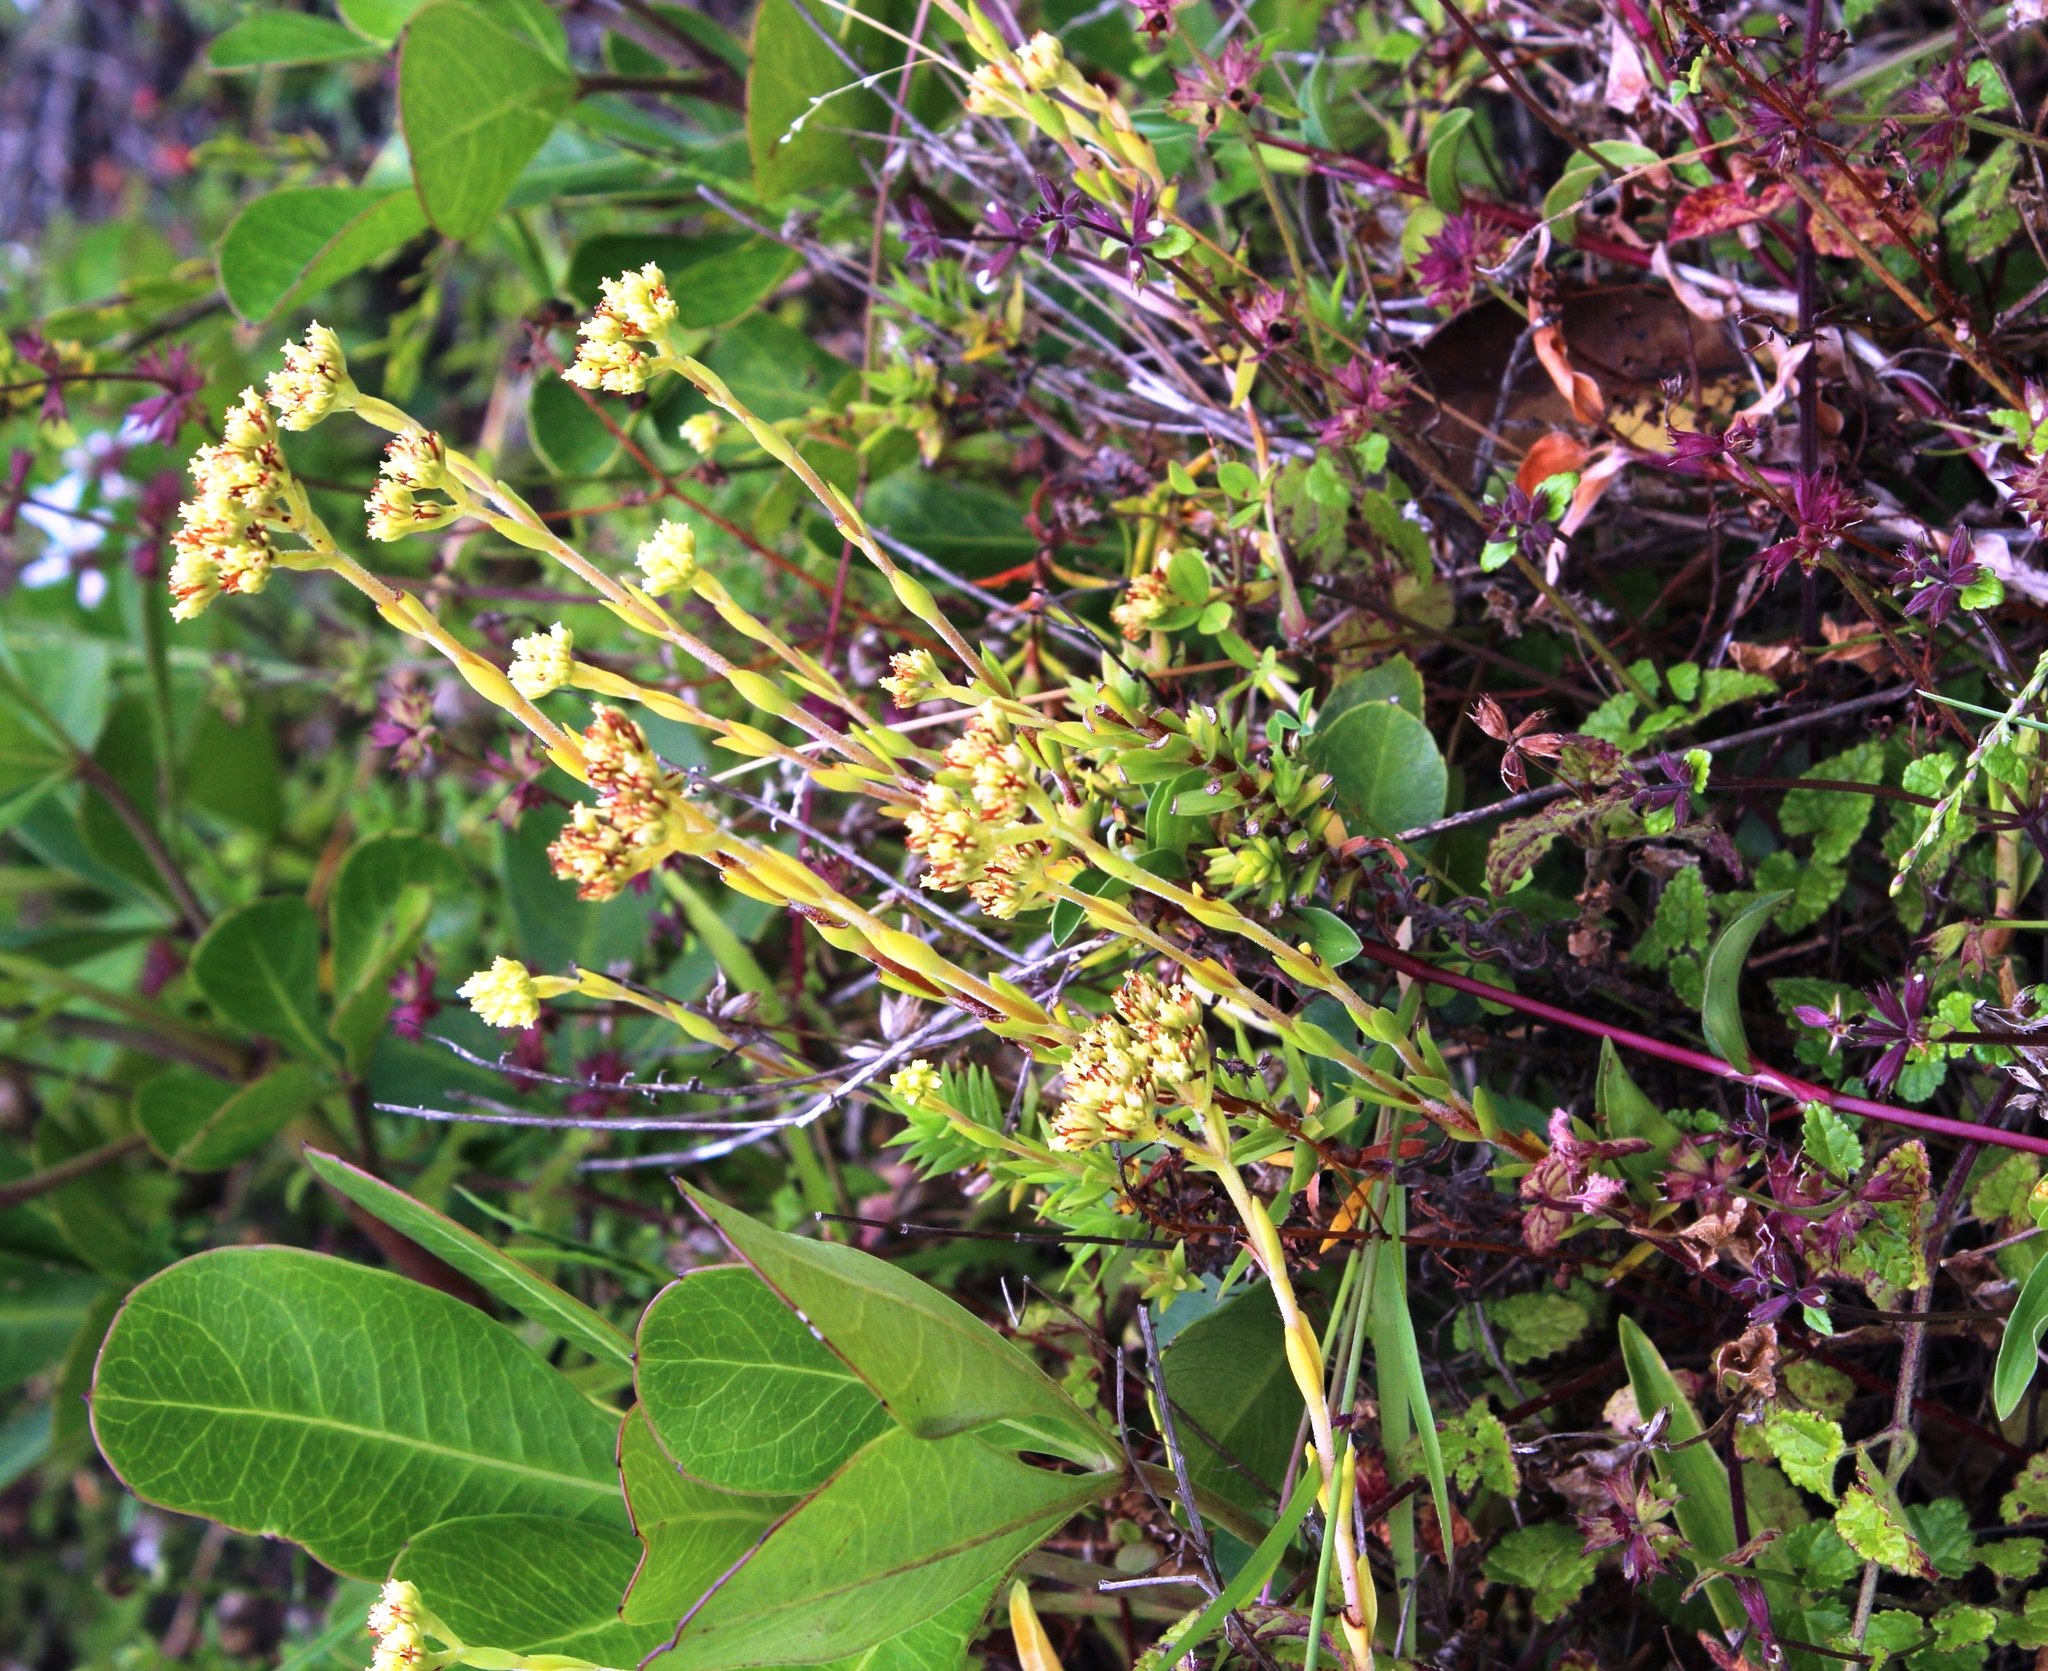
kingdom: Plantae
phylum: Tracheophyta
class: Magnoliopsida
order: Saxifragales
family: Crassulaceae
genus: Crassula
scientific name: Crassula subulata
